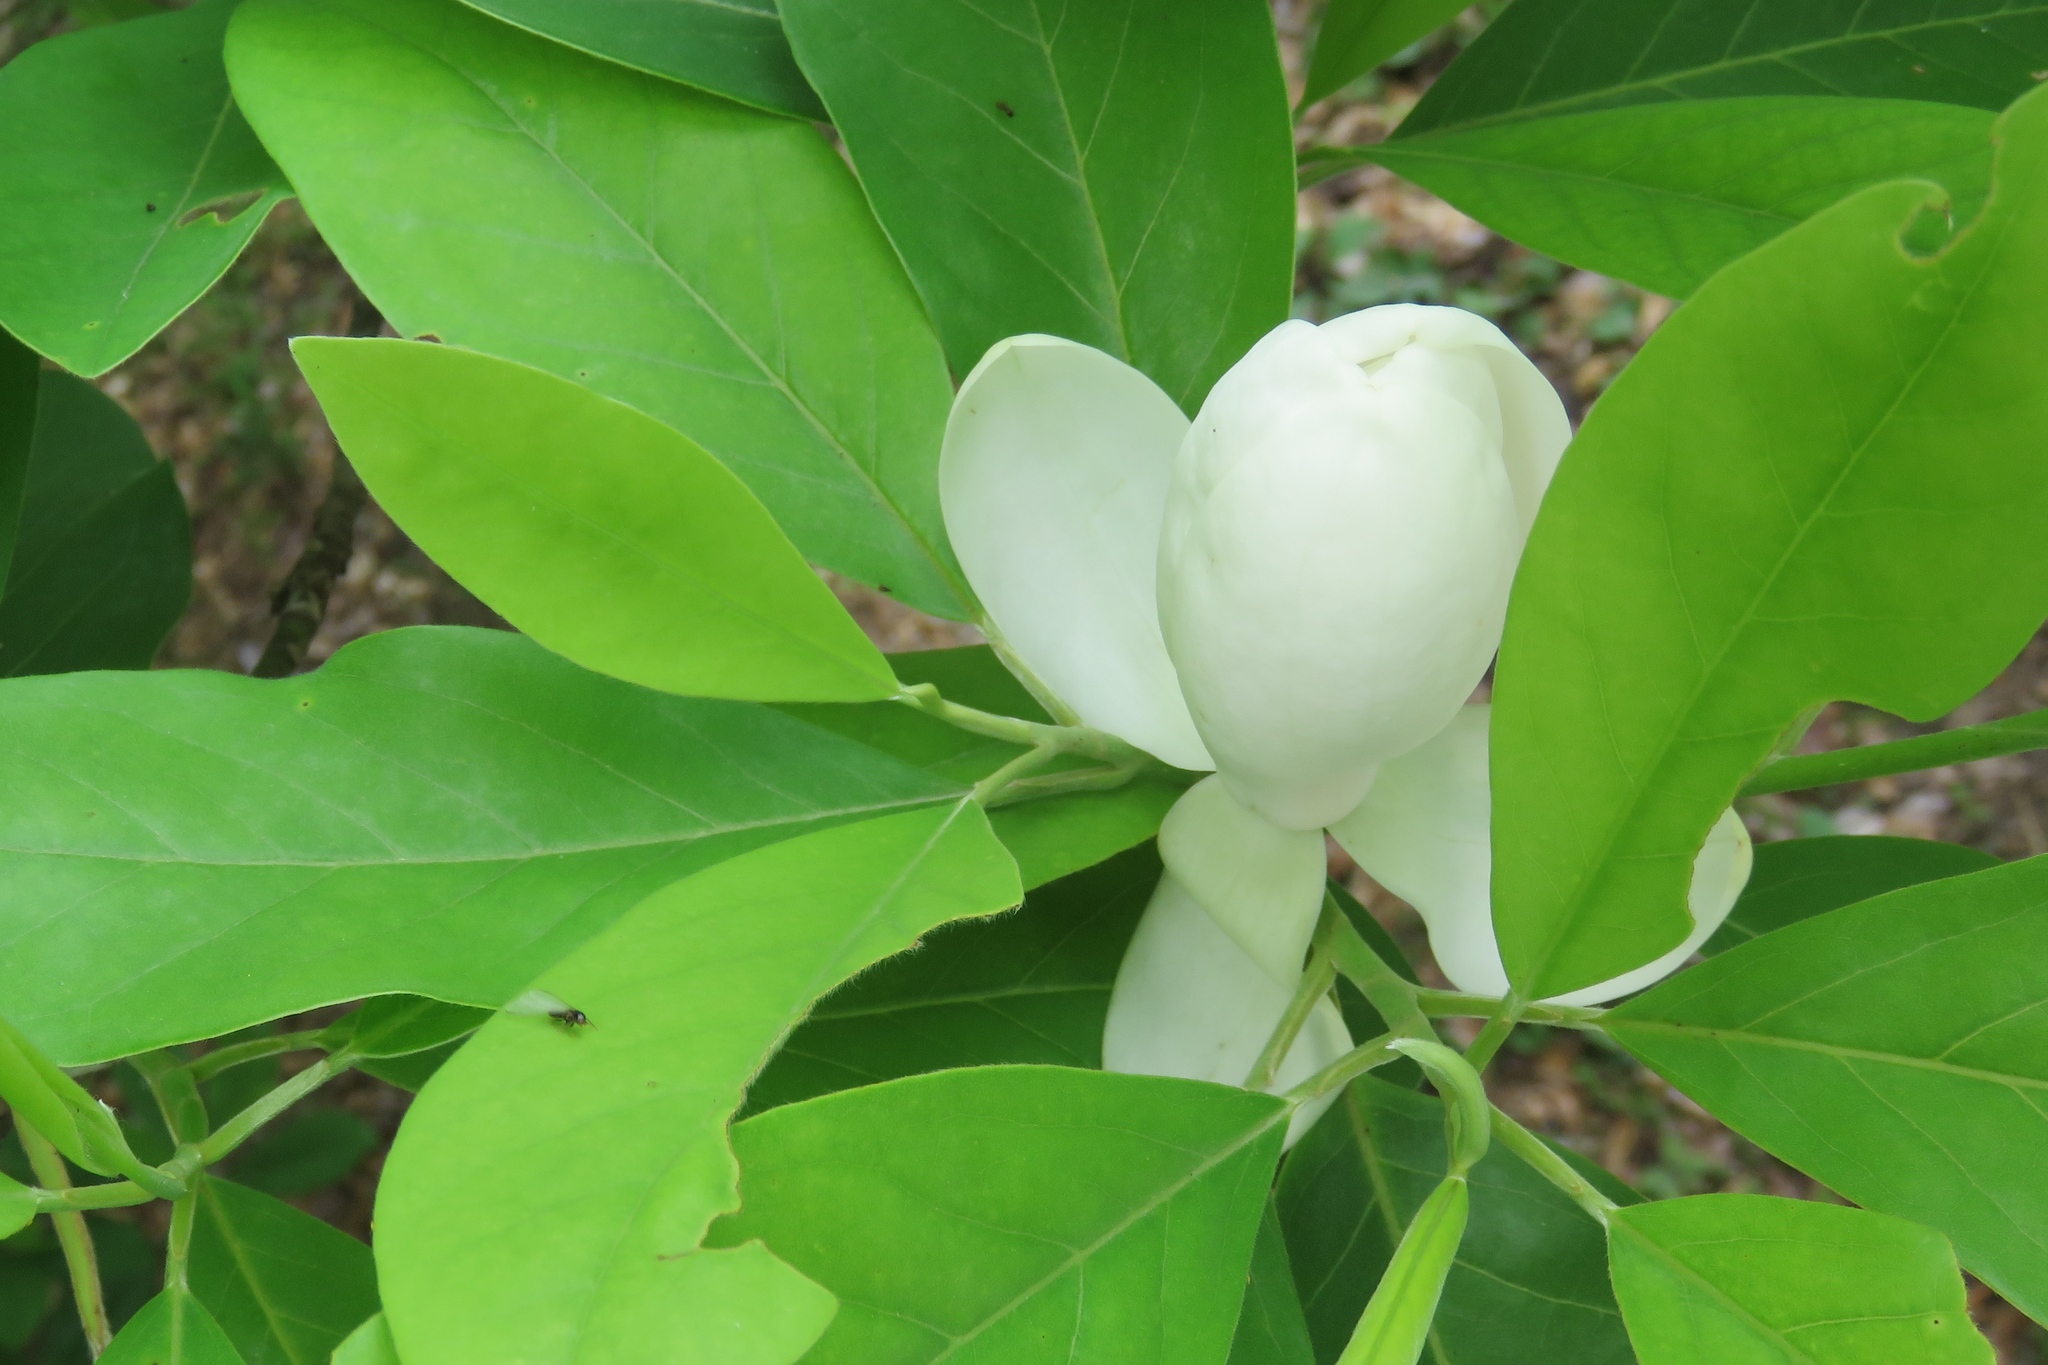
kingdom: Plantae
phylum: Tracheophyta
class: Magnoliopsida
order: Magnoliales
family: Magnoliaceae
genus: Magnolia
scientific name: Magnolia virginiana
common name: Swamp bay
